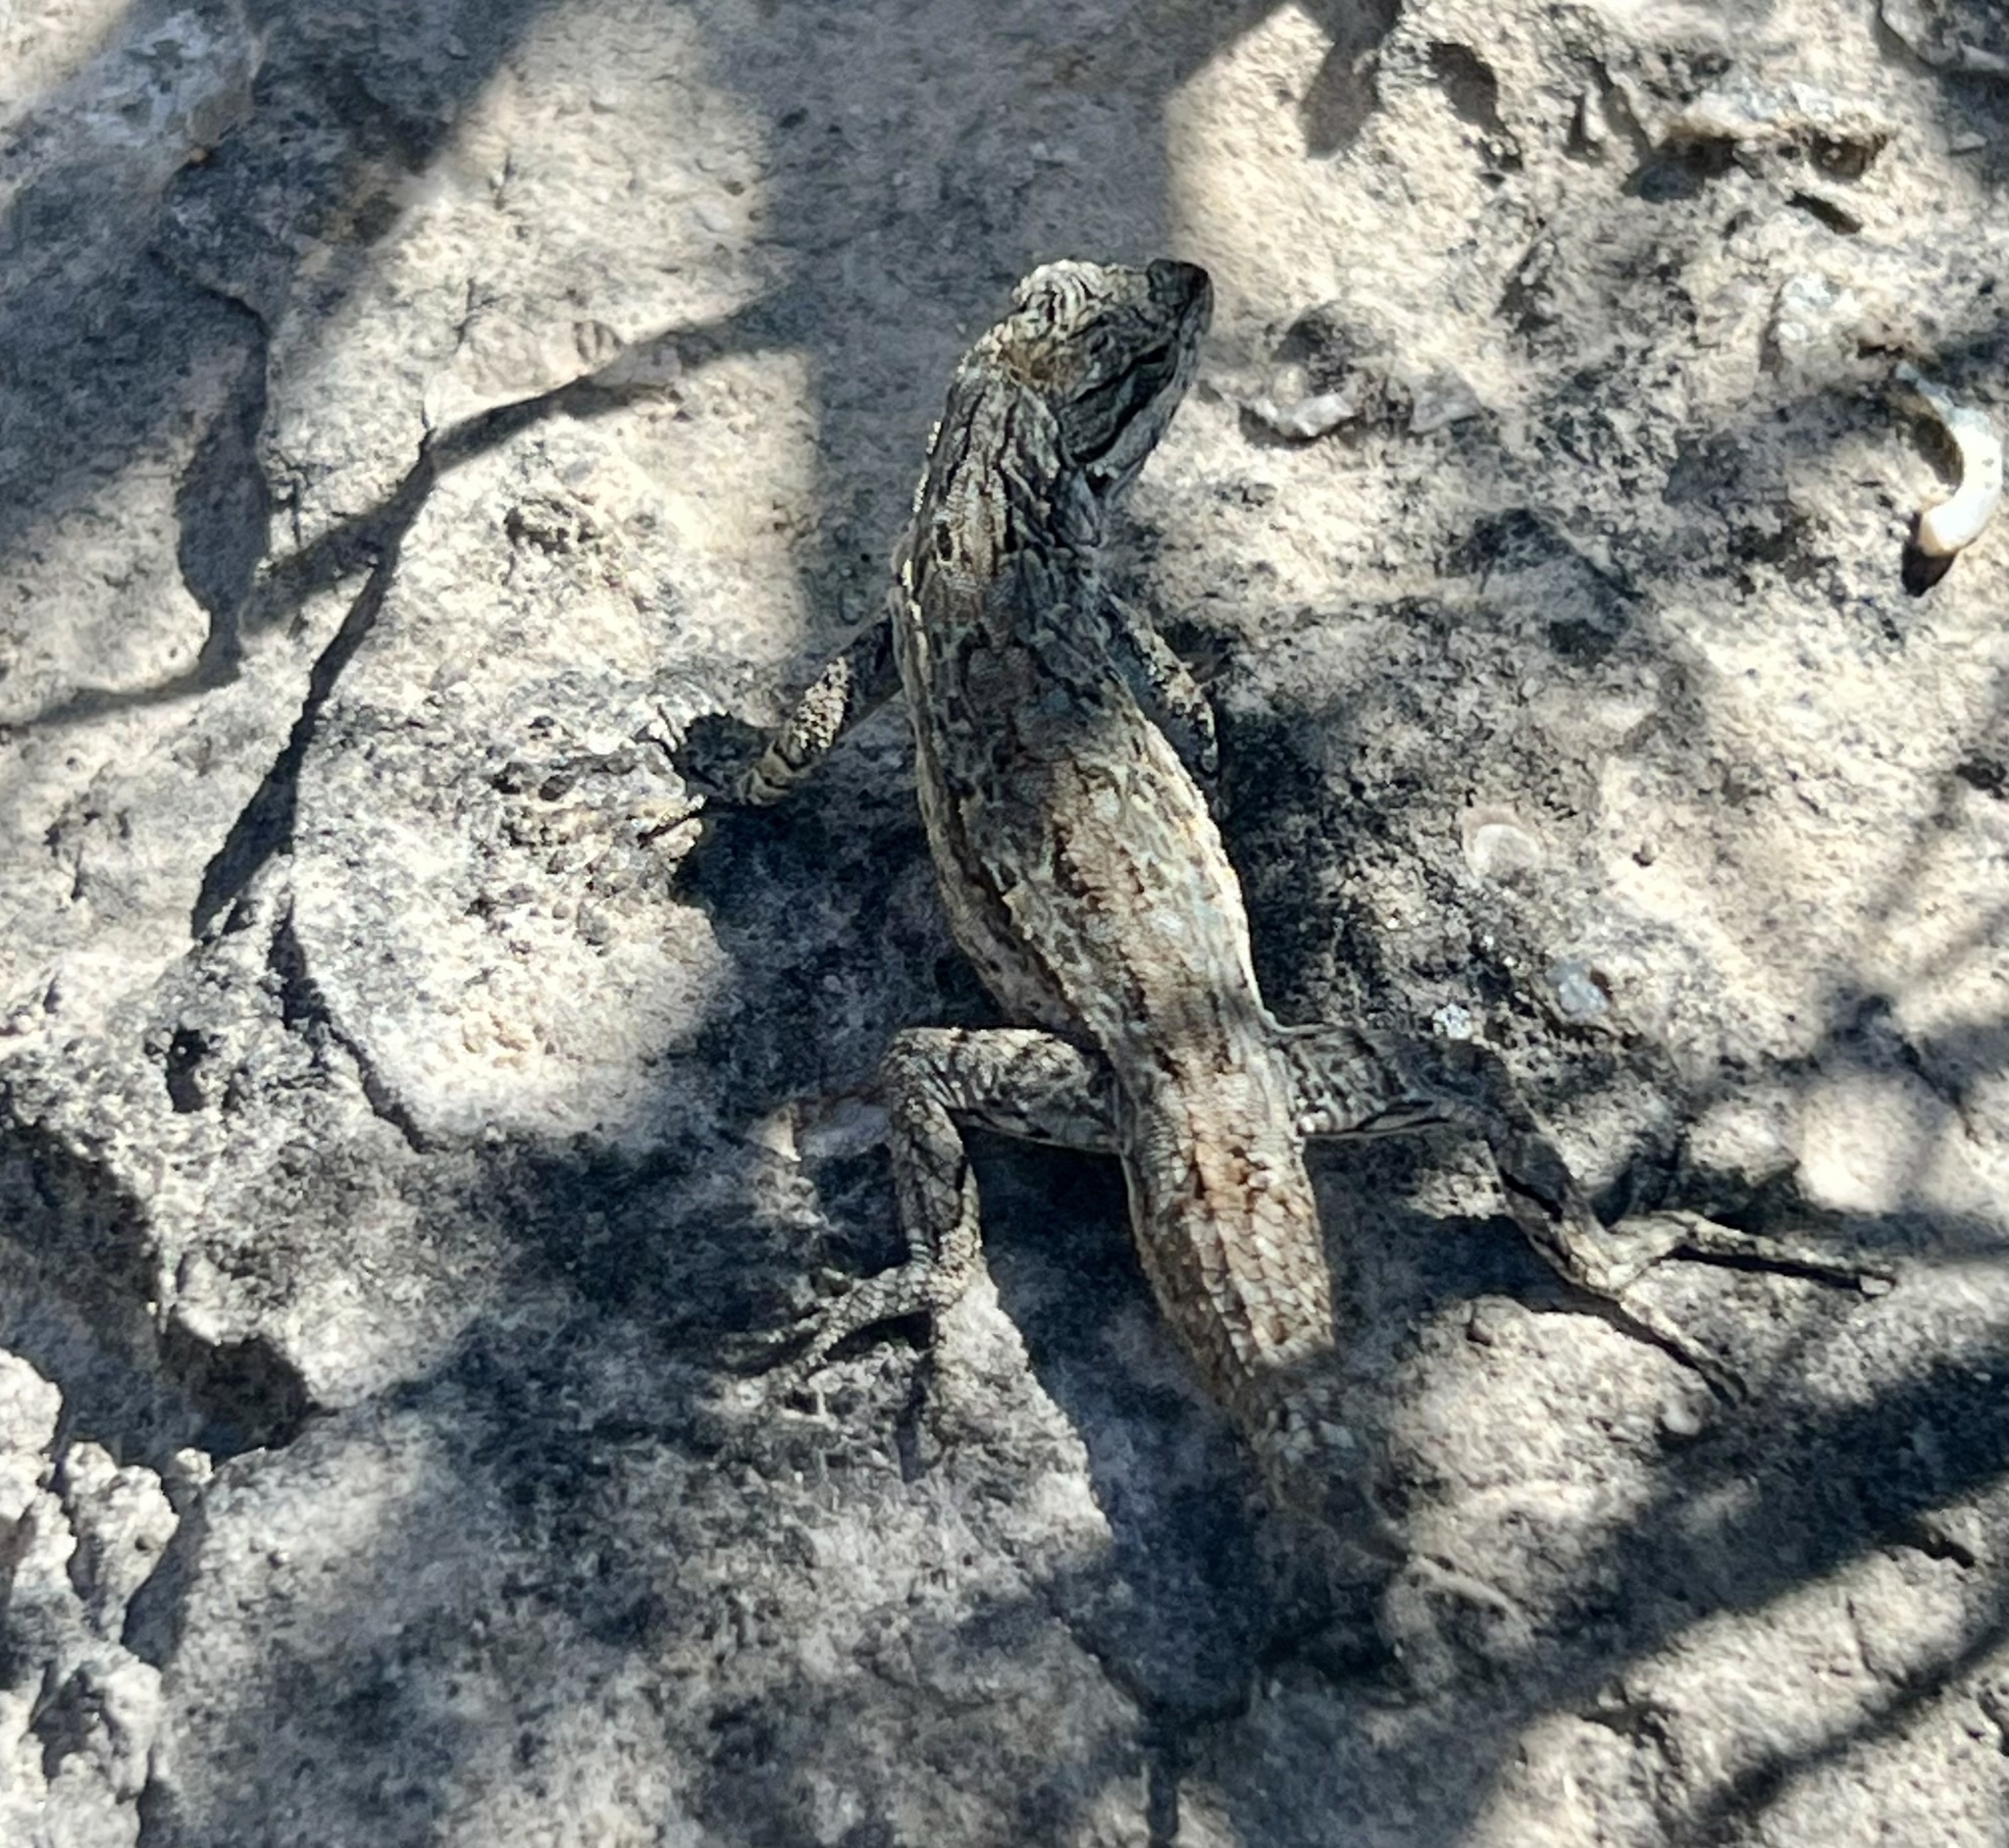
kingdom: Animalia
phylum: Chordata
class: Squamata
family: Phrynosomatidae
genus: Urosaurus
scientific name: Urosaurus ornatus
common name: Ornate tree lizard
